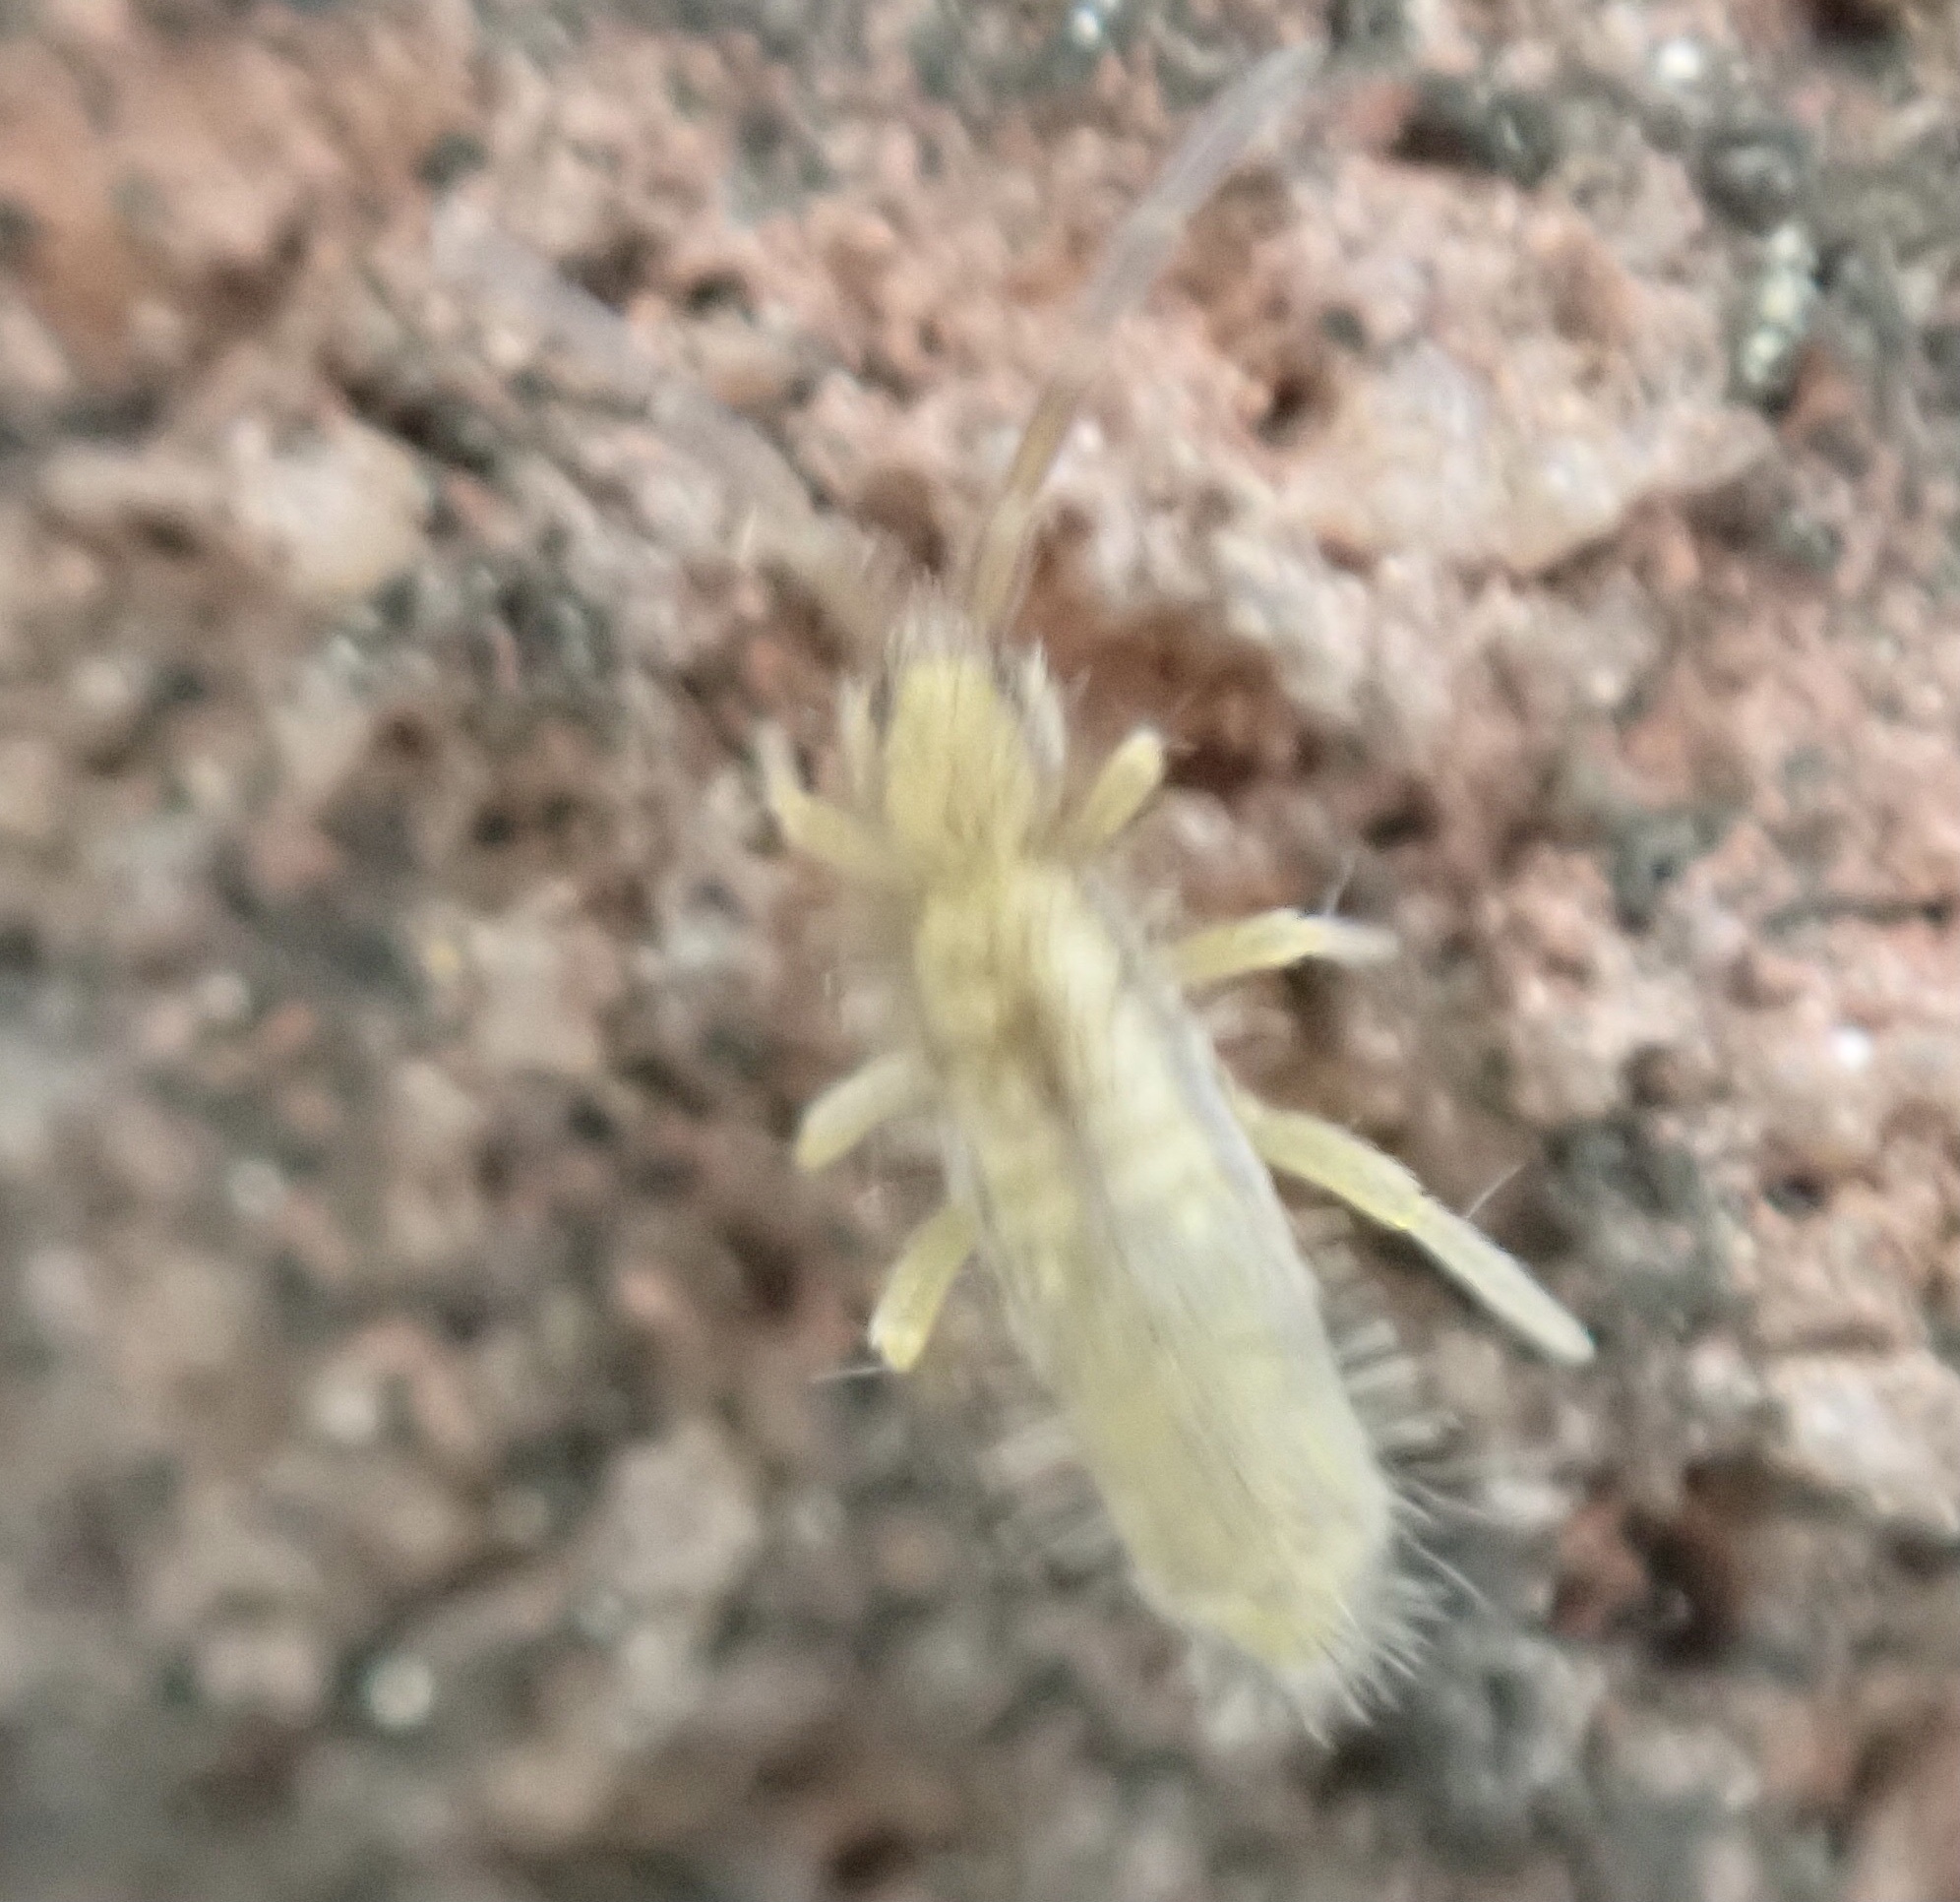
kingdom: Animalia
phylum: Arthropoda
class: Collembola
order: Entomobryomorpha
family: Entomobryidae
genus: Homidia
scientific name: Homidia socia
